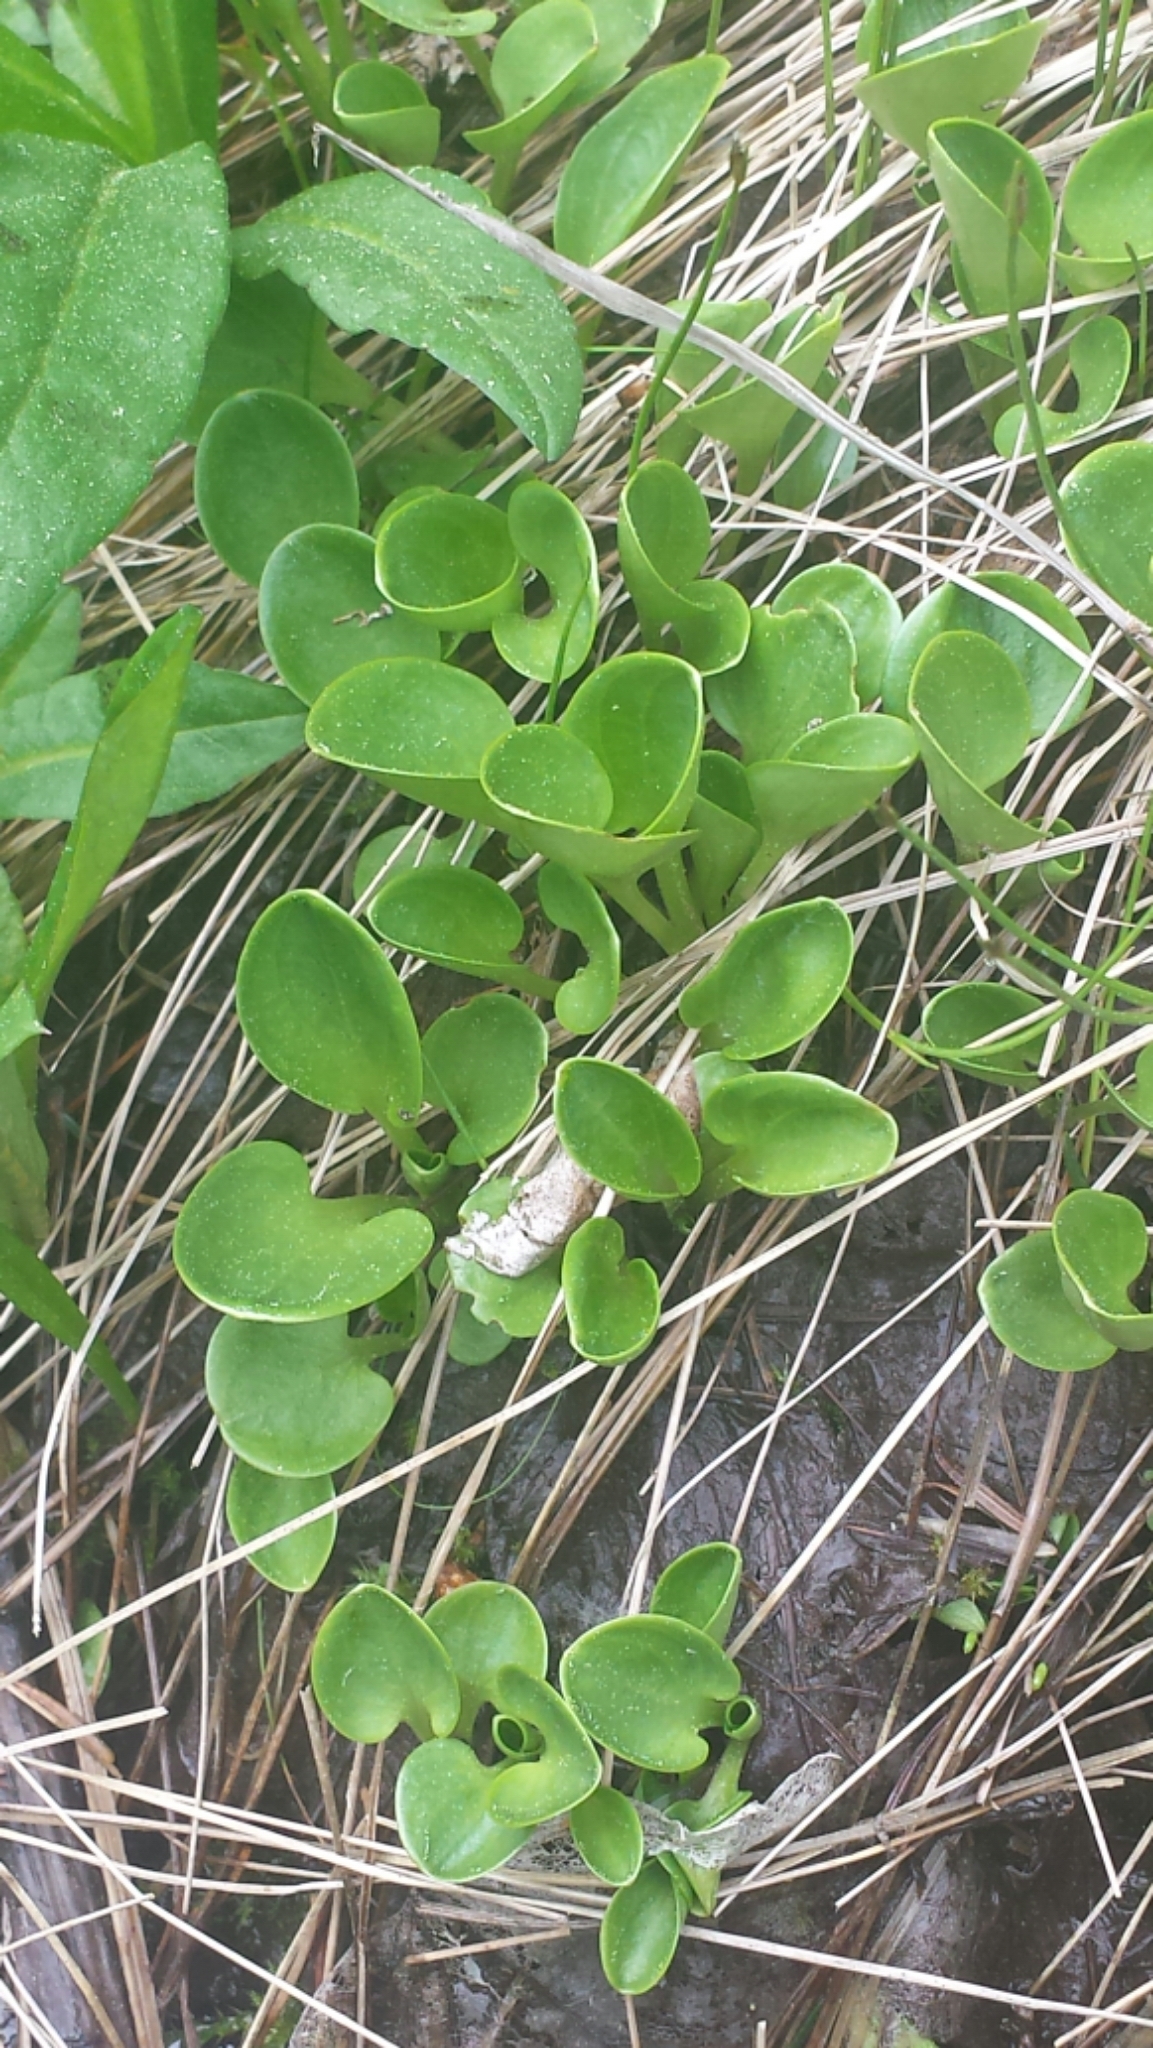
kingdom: Plantae
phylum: Tracheophyta
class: Magnoliopsida
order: Celastrales
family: Parnassiaceae
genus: Parnassia
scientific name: Parnassia glauca
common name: American grass-of-parnassus
